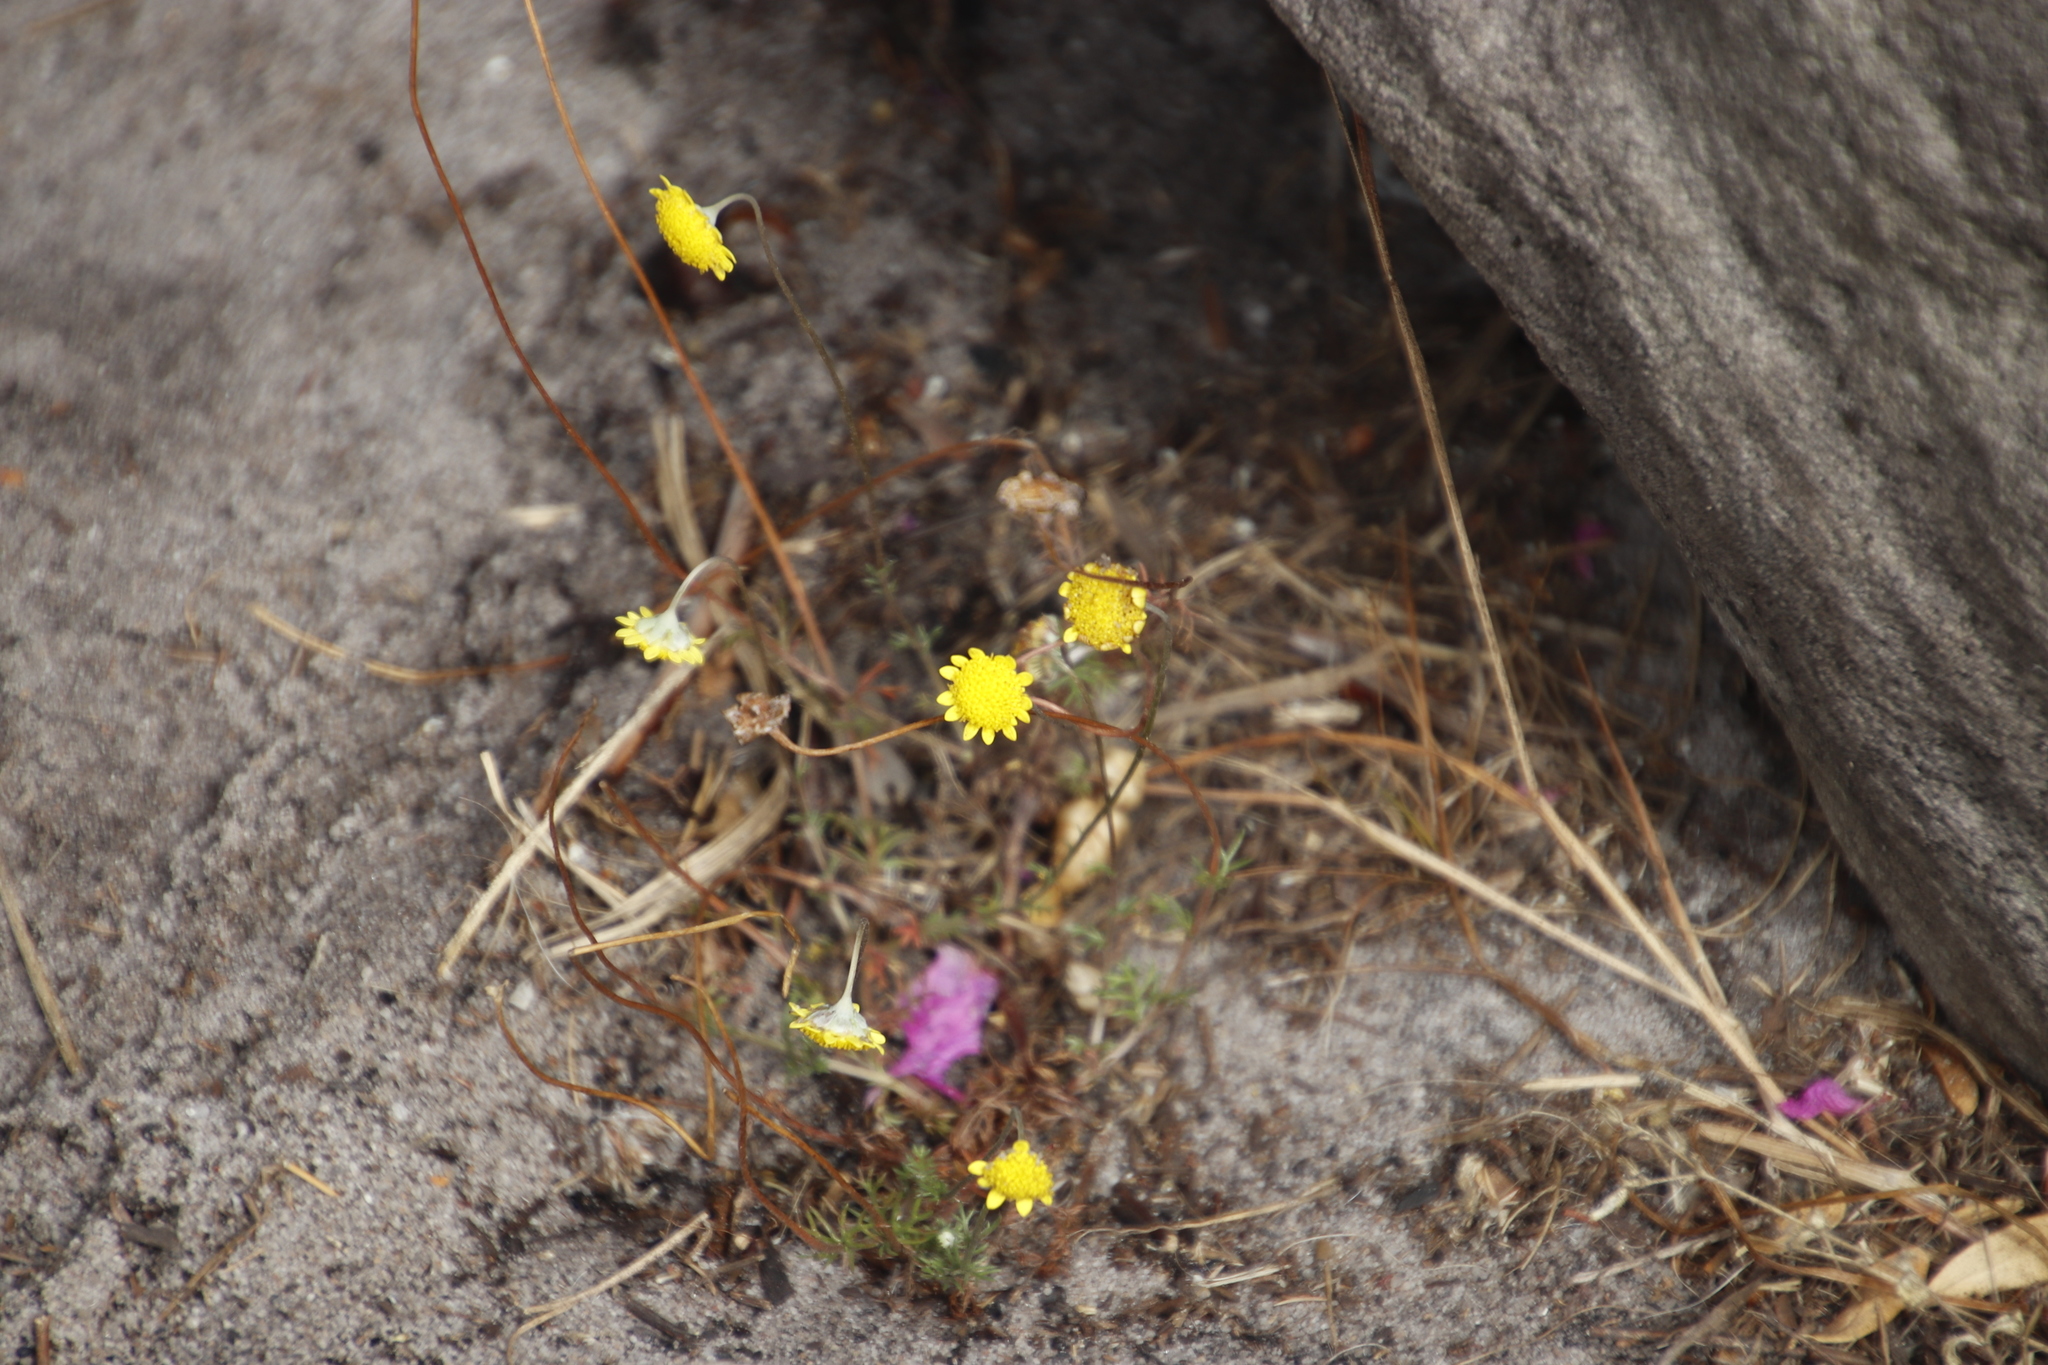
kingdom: Plantae
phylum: Tracheophyta
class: Magnoliopsida
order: Asterales
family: Asteraceae
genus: Cotula
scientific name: Cotula pruinosa
